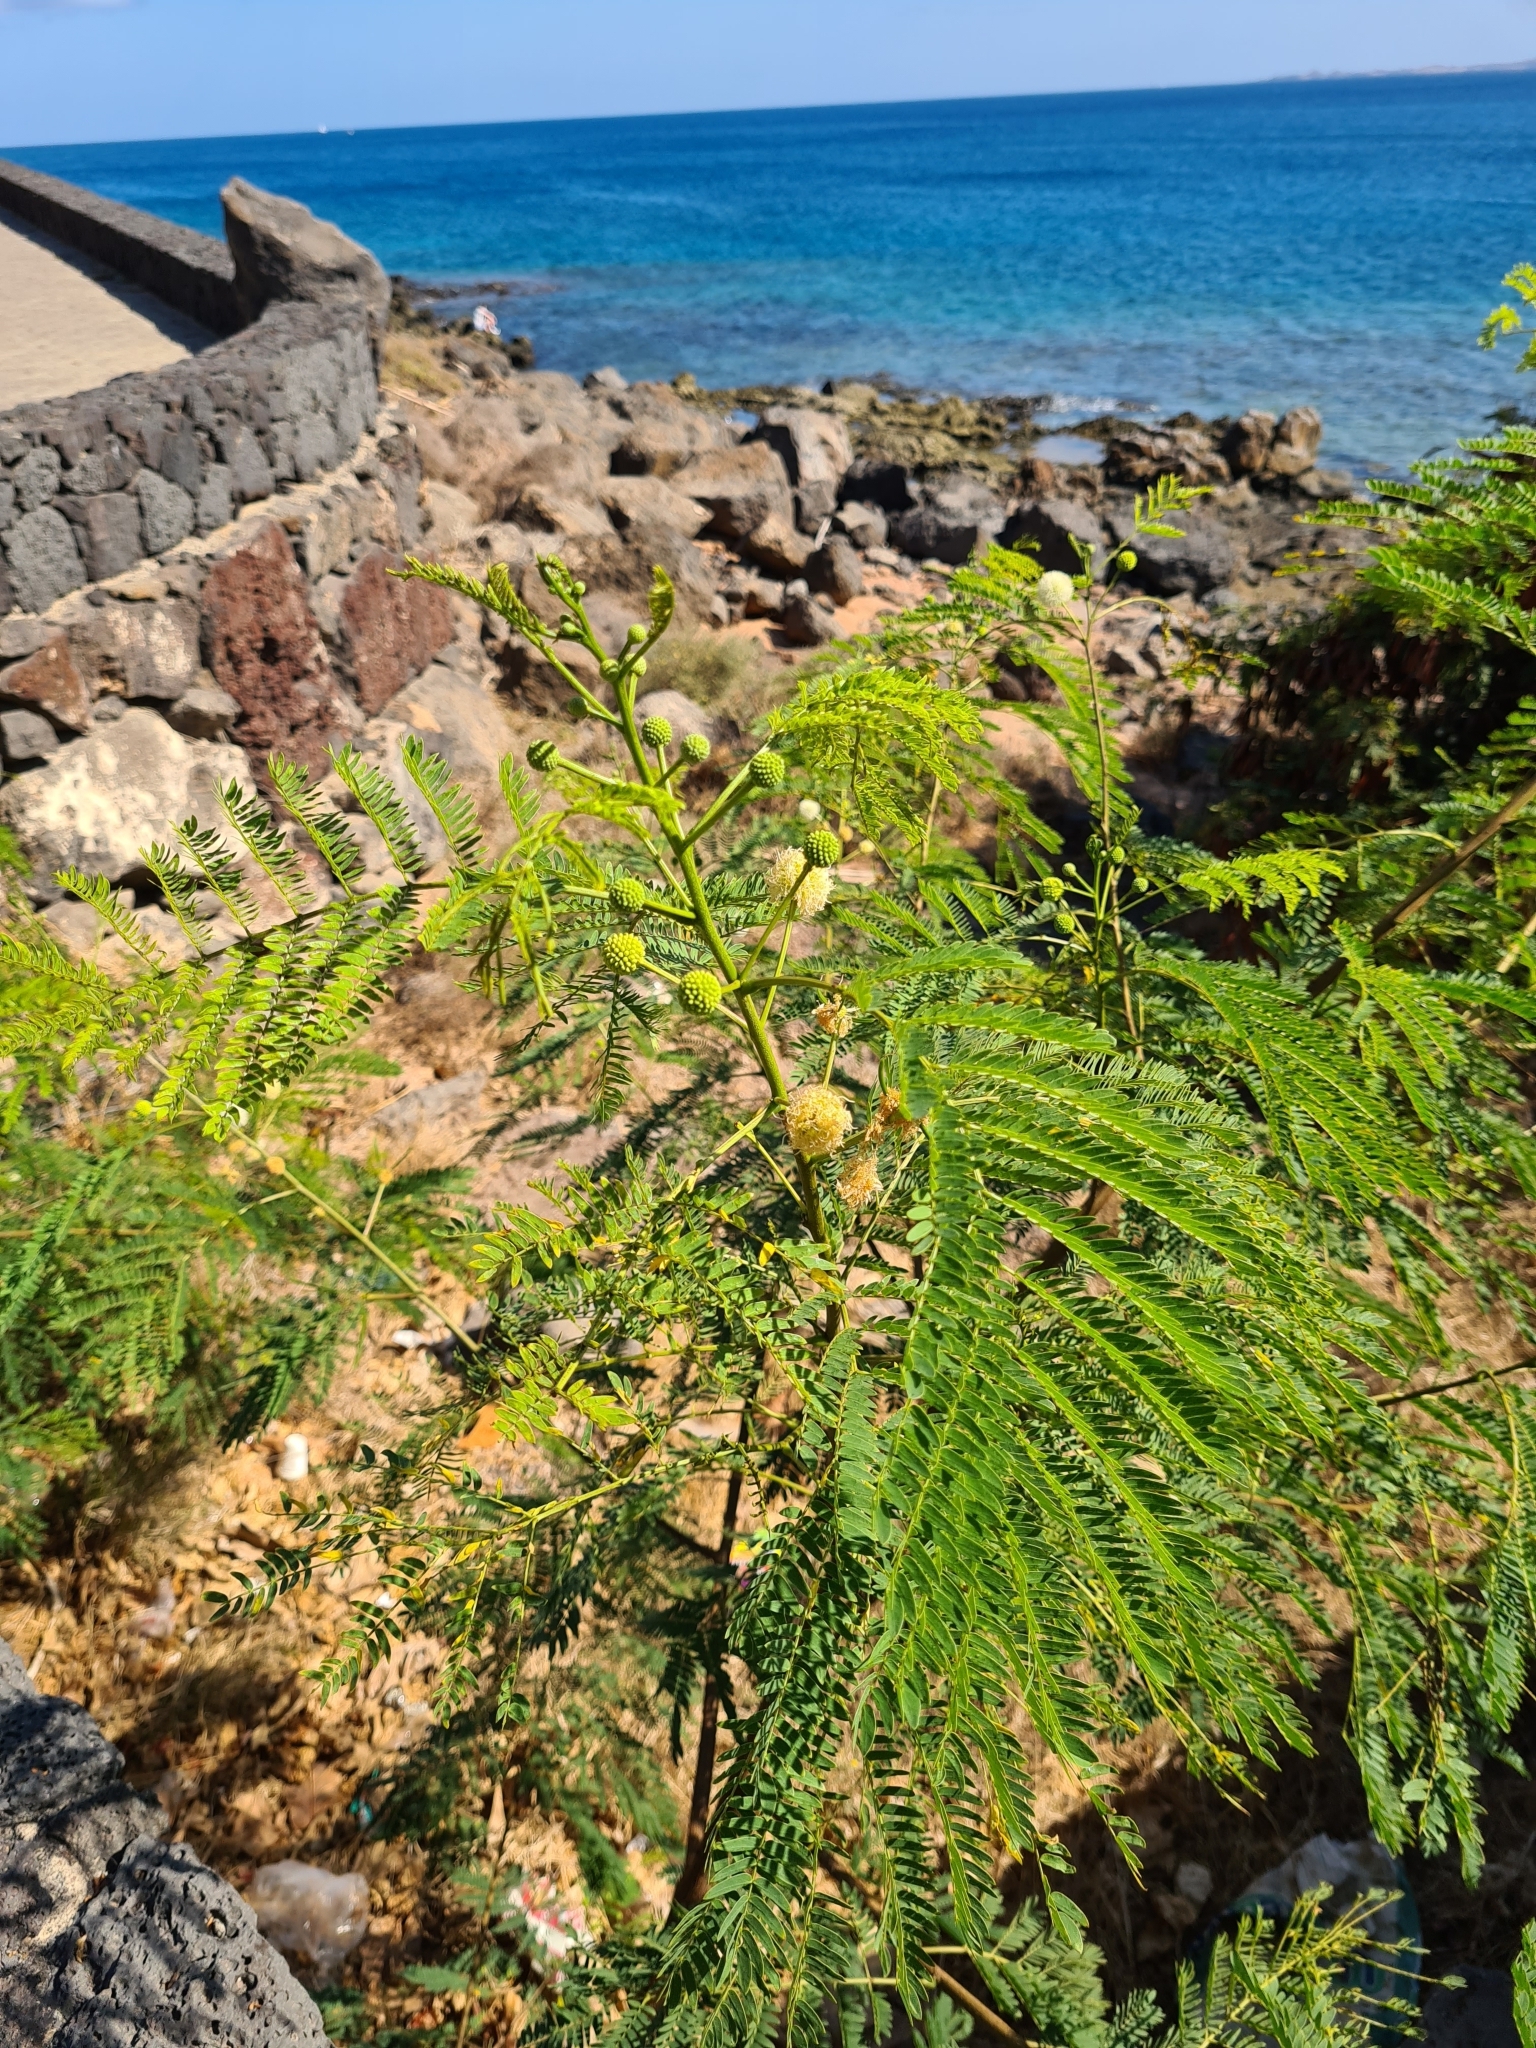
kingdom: Plantae
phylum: Tracheophyta
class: Magnoliopsida
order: Fabales
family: Fabaceae
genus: Leucaena
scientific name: Leucaena leucocephala
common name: White leadtree
